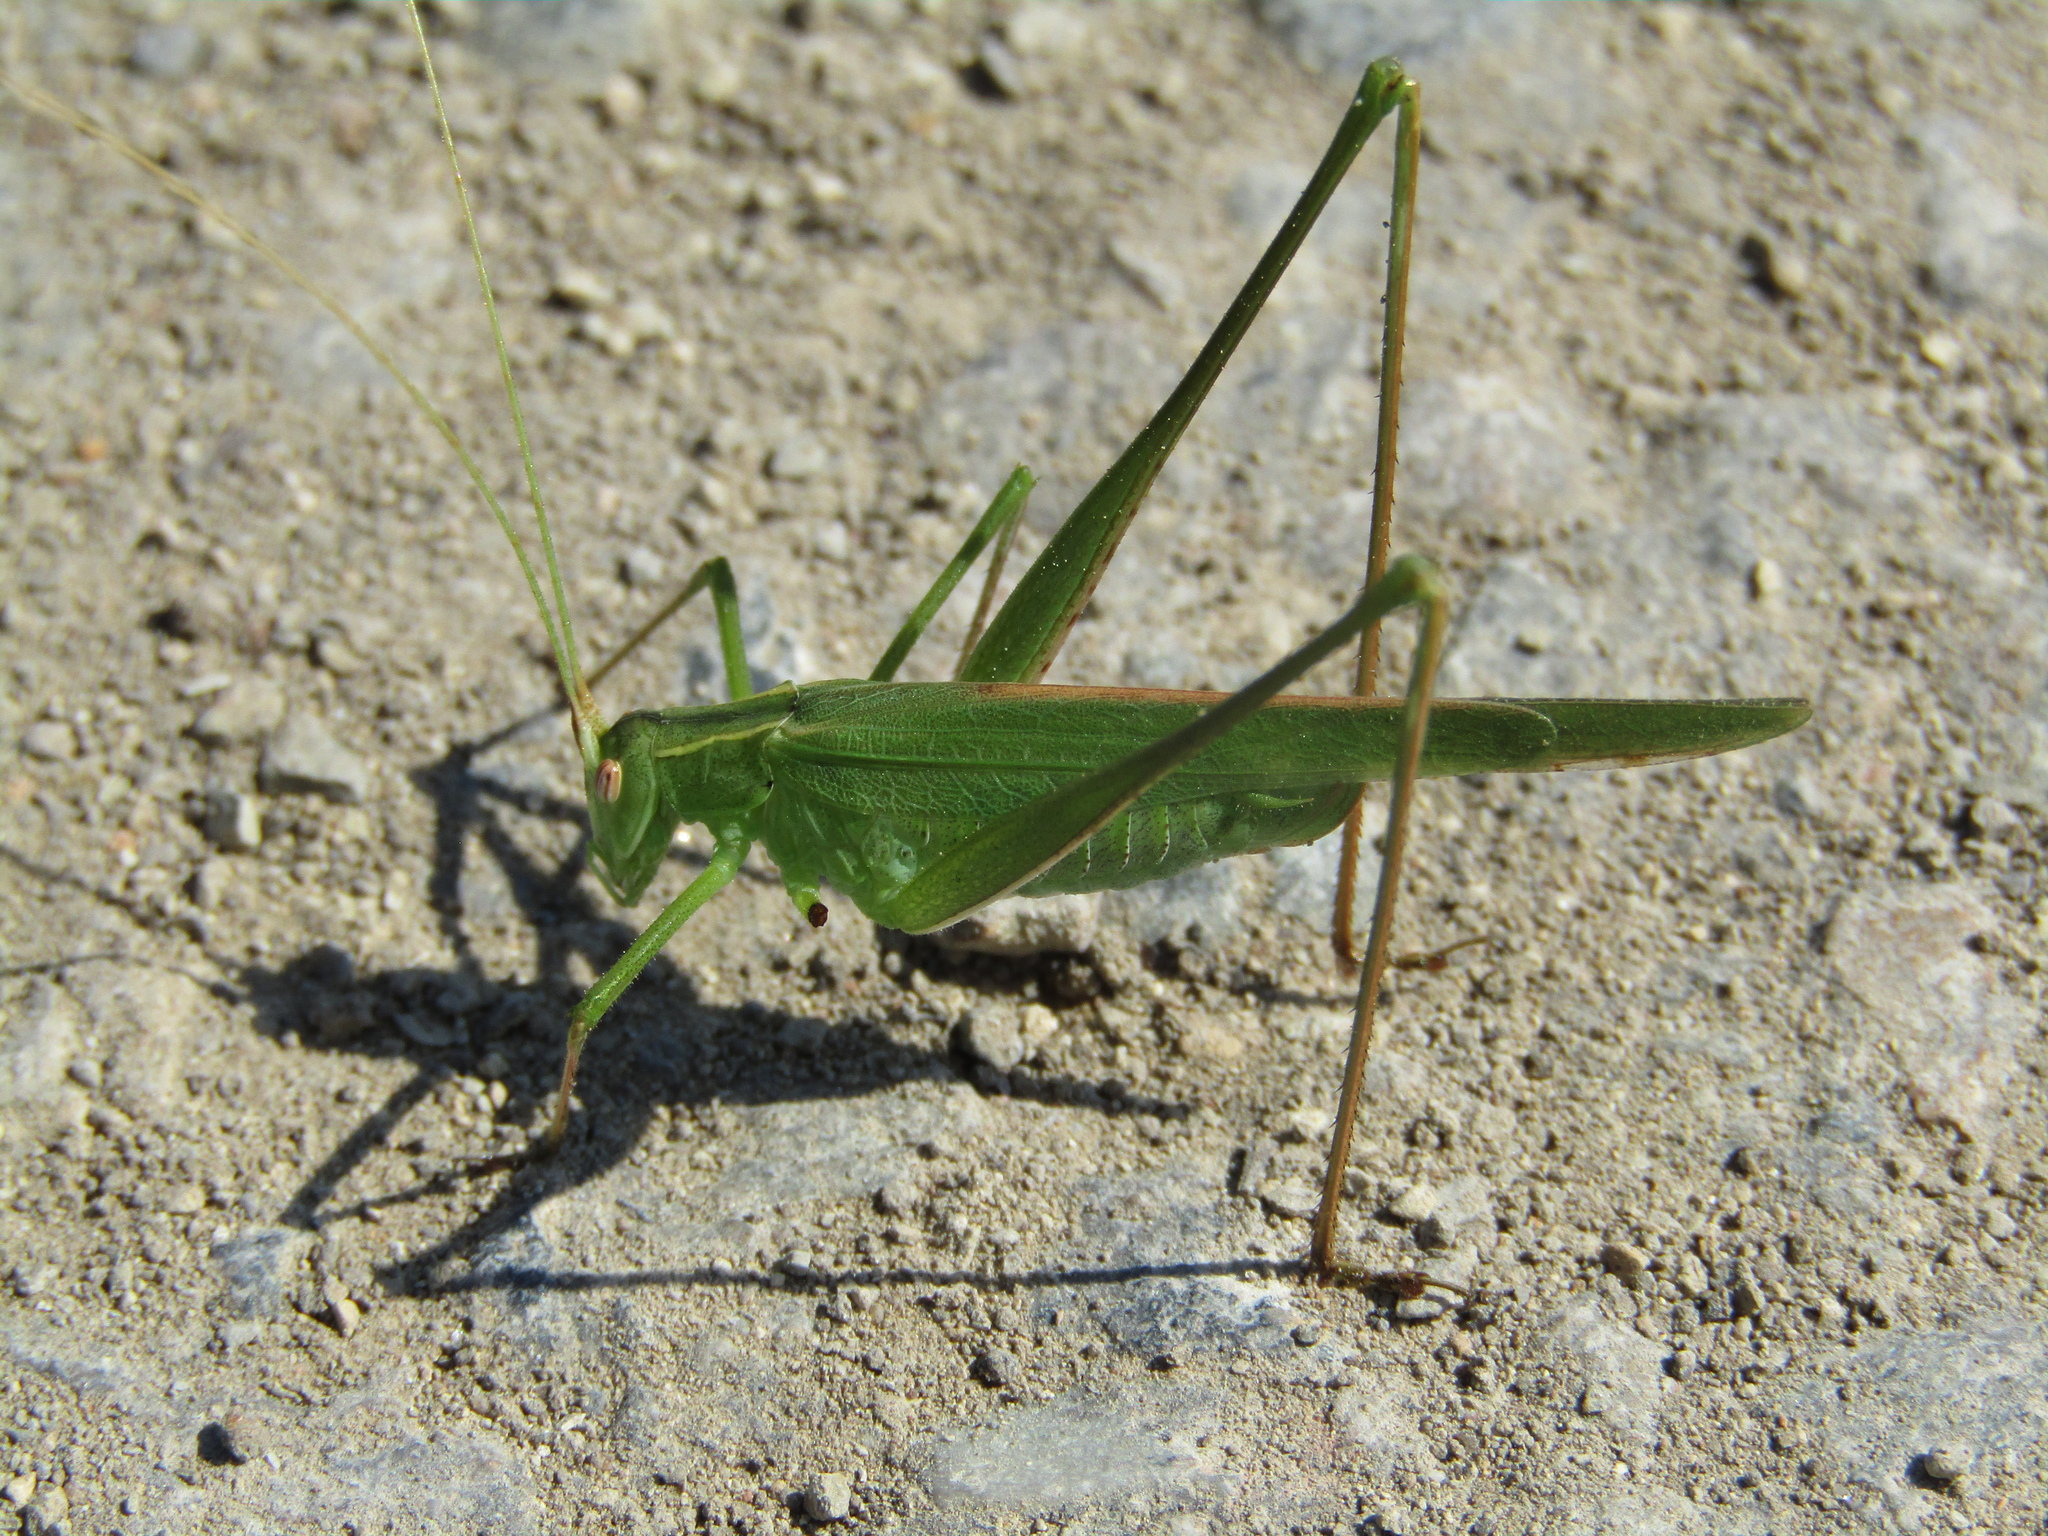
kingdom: Animalia
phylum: Arthropoda
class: Insecta
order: Orthoptera
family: Tettigoniidae
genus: Tylopsis
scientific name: Tylopsis lilifolia
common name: Lily bush-cricket
